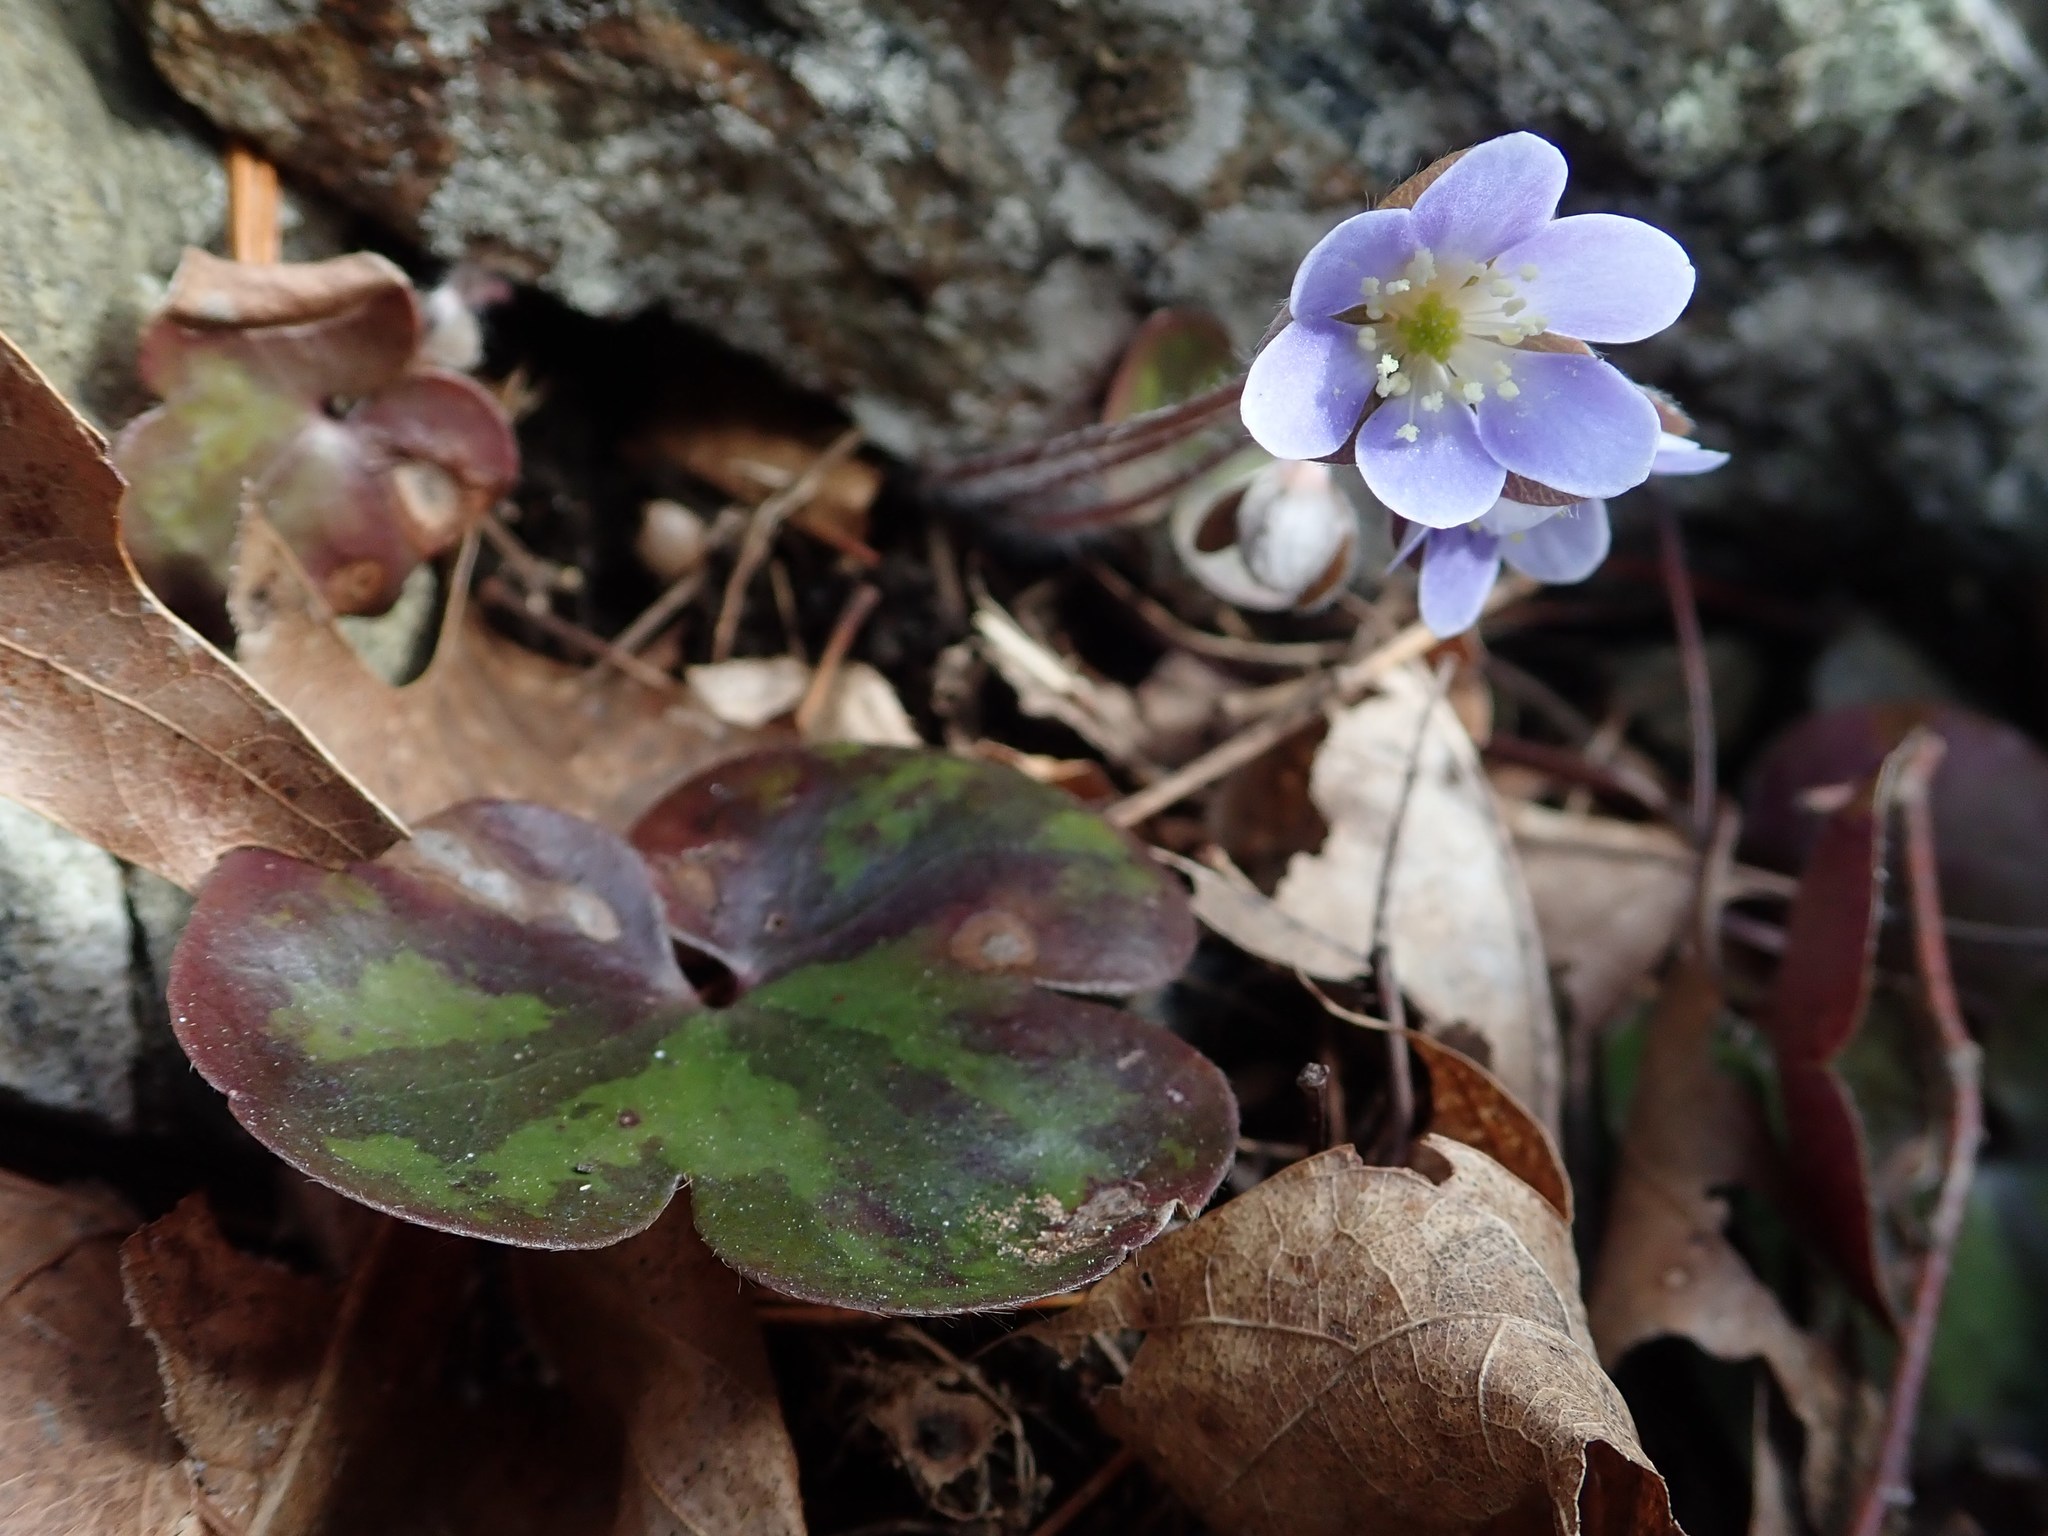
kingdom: Plantae
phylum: Tracheophyta
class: Magnoliopsida
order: Ranunculales
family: Ranunculaceae
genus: Hepatica
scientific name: Hepatica americana
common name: American hepatica
